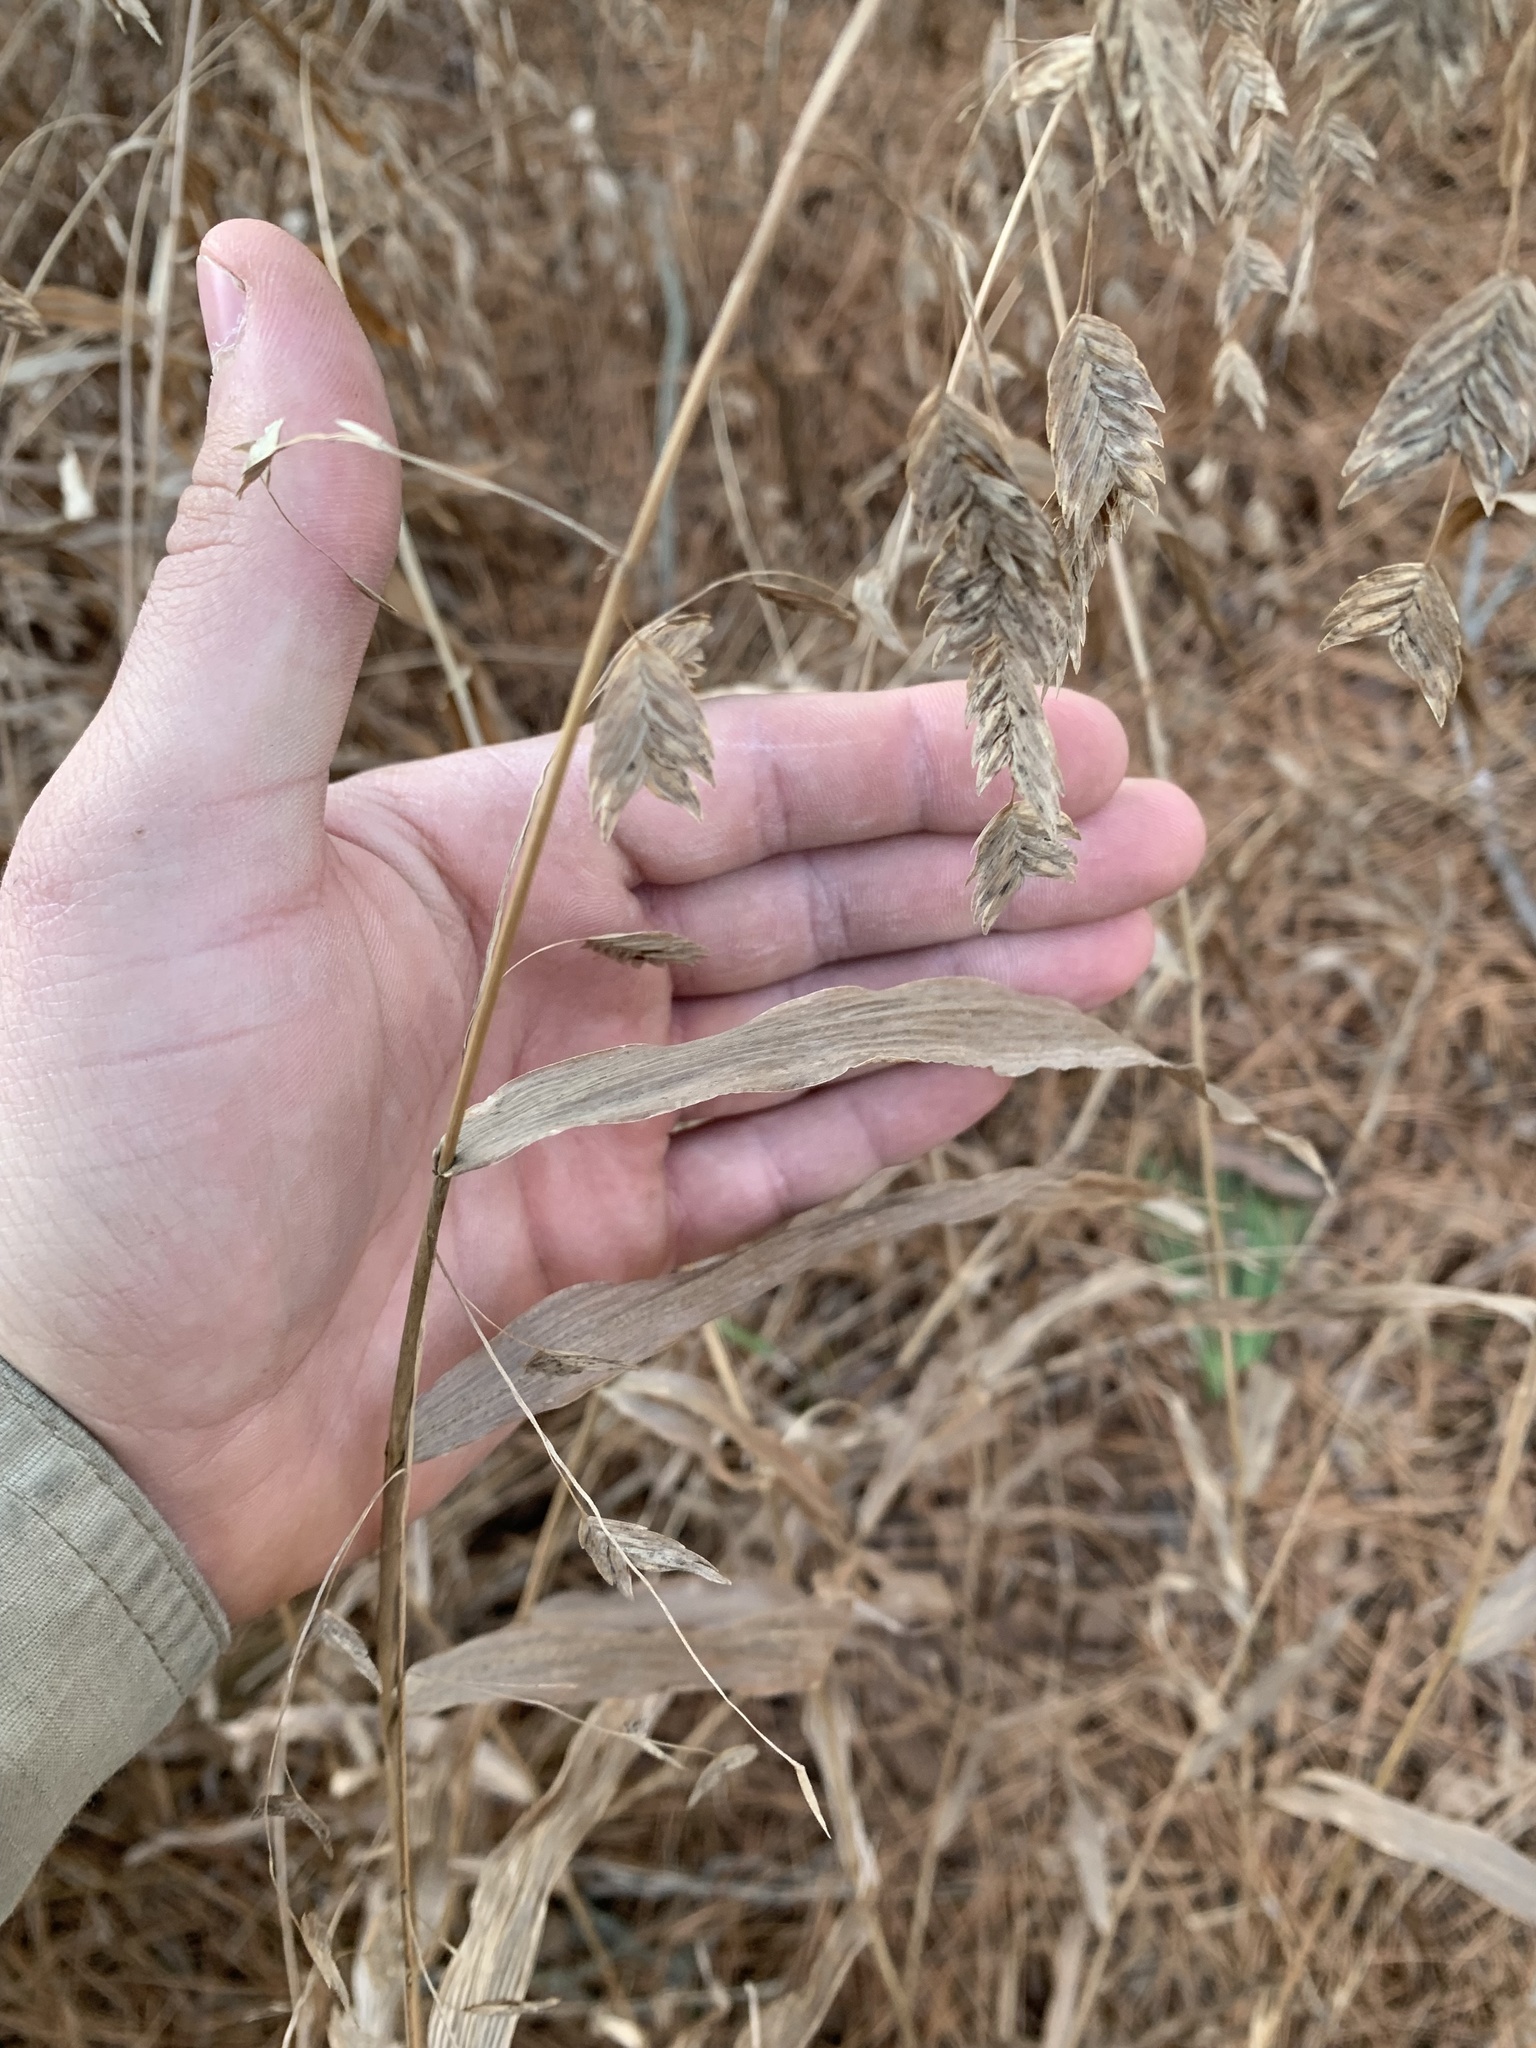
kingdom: Plantae
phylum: Tracheophyta
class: Liliopsida
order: Poales
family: Poaceae
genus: Chasmanthium
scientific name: Chasmanthium latifolium
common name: Broad-leaved chasmanthium
